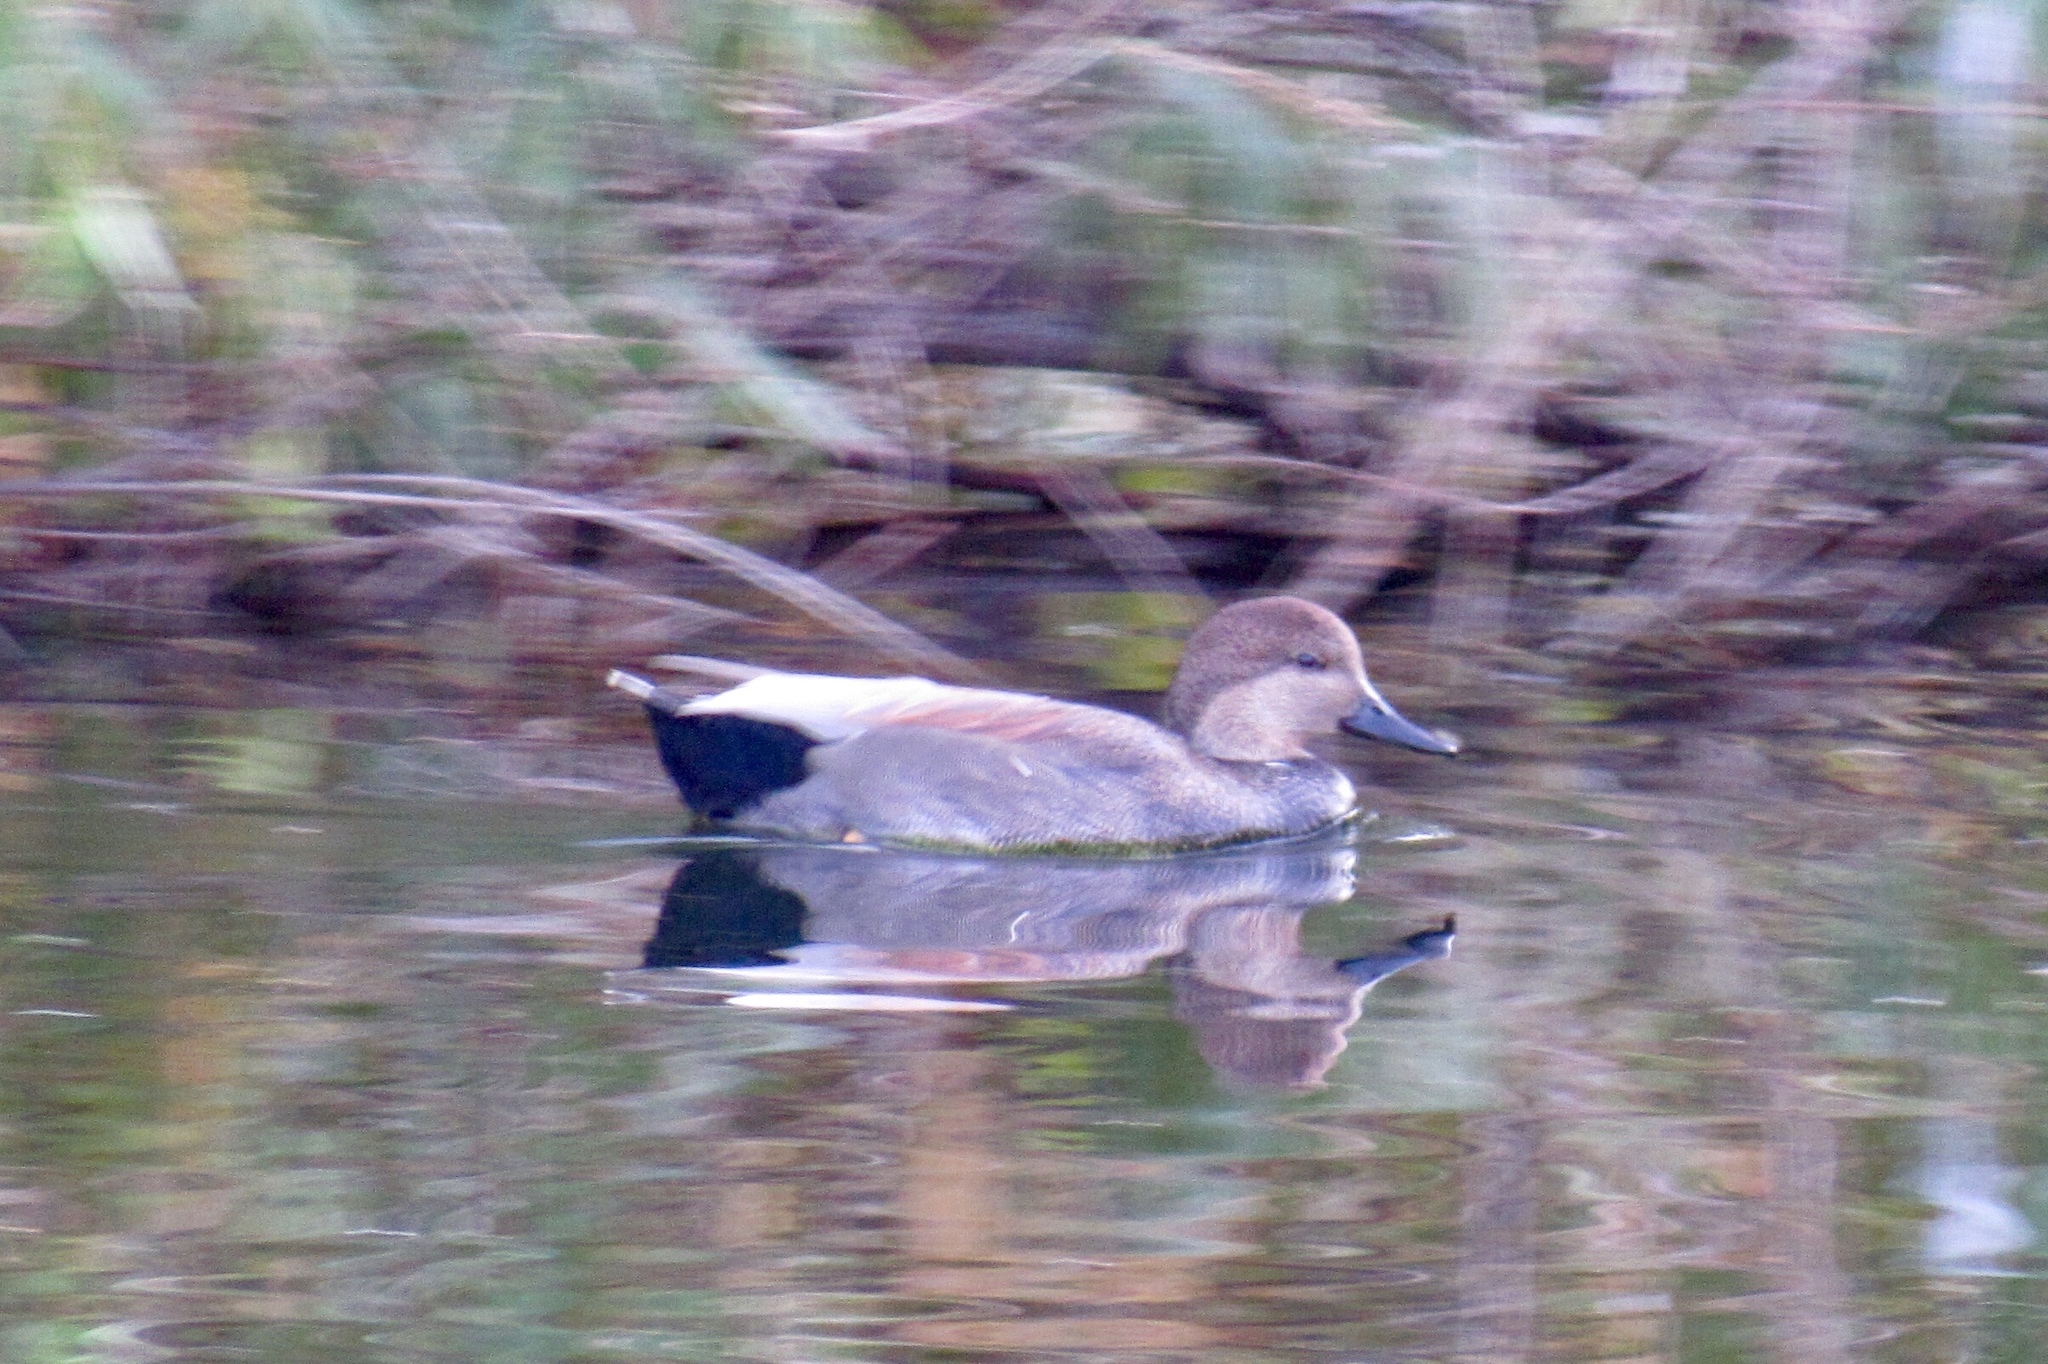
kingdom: Animalia
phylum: Chordata
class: Aves
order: Anseriformes
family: Anatidae
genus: Mareca
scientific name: Mareca strepera
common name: Gadwall
